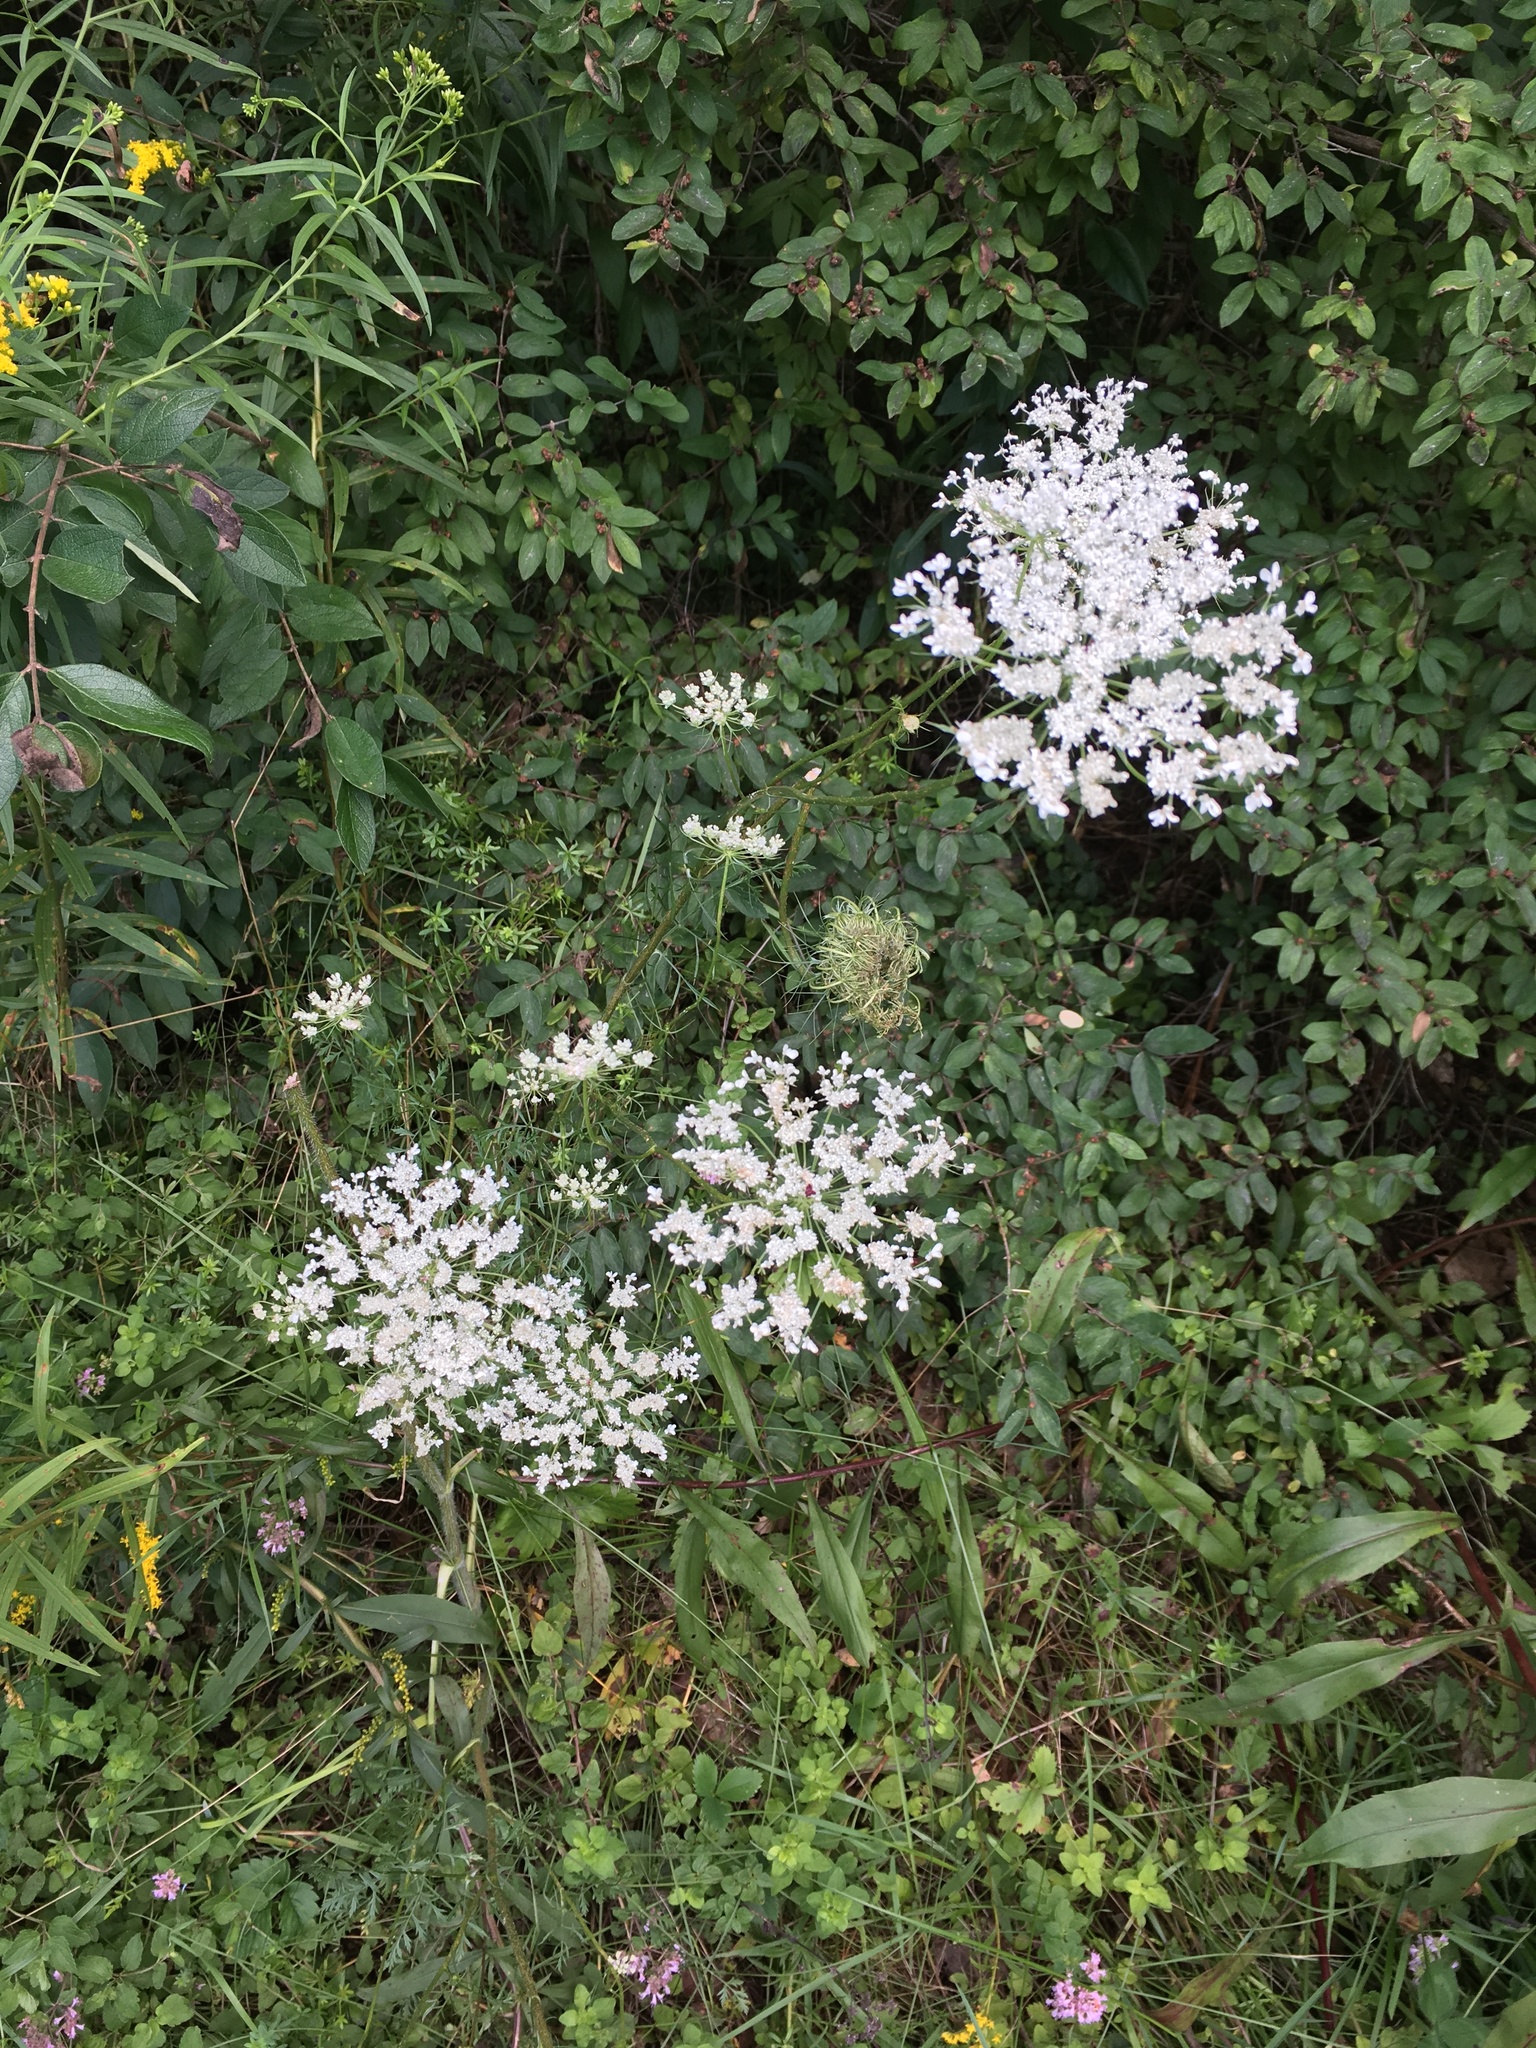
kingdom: Plantae
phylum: Tracheophyta
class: Magnoliopsida
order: Apiales
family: Apiaceae
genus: Daucus
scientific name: Daucus carota
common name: Wild carrot
